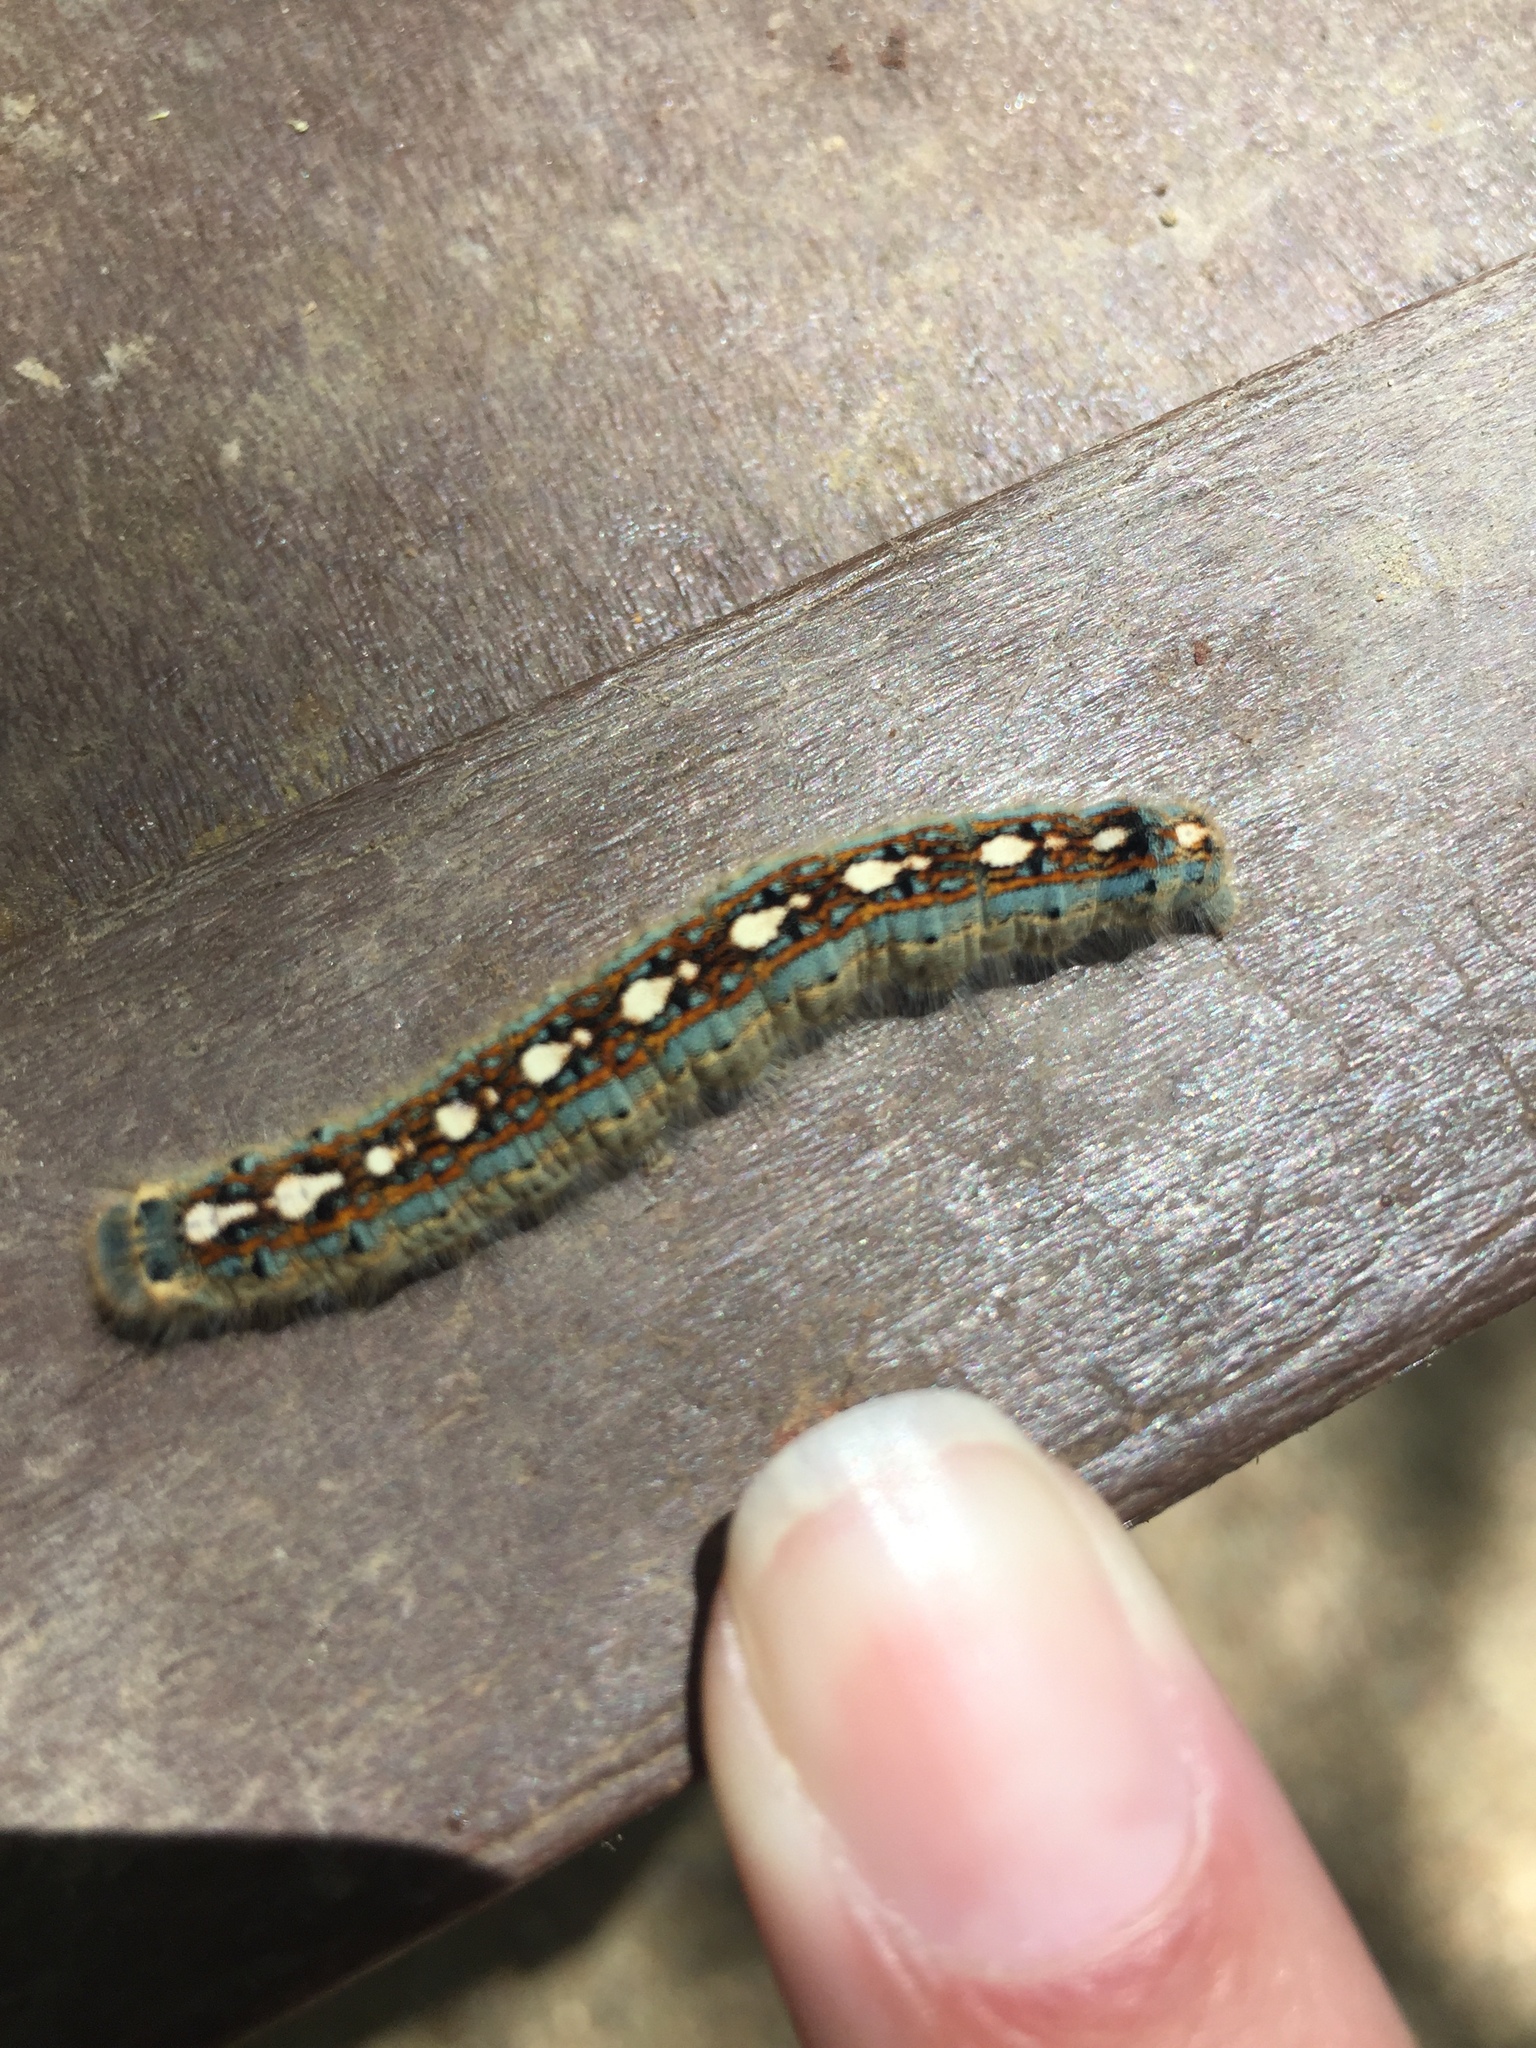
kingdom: Animalia
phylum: Arthropoda
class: Insecta
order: Lepidoptera
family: Lasiocampidae
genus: Malacosoma
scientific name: Malacosoma disstria
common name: Forest tent caterpillar
